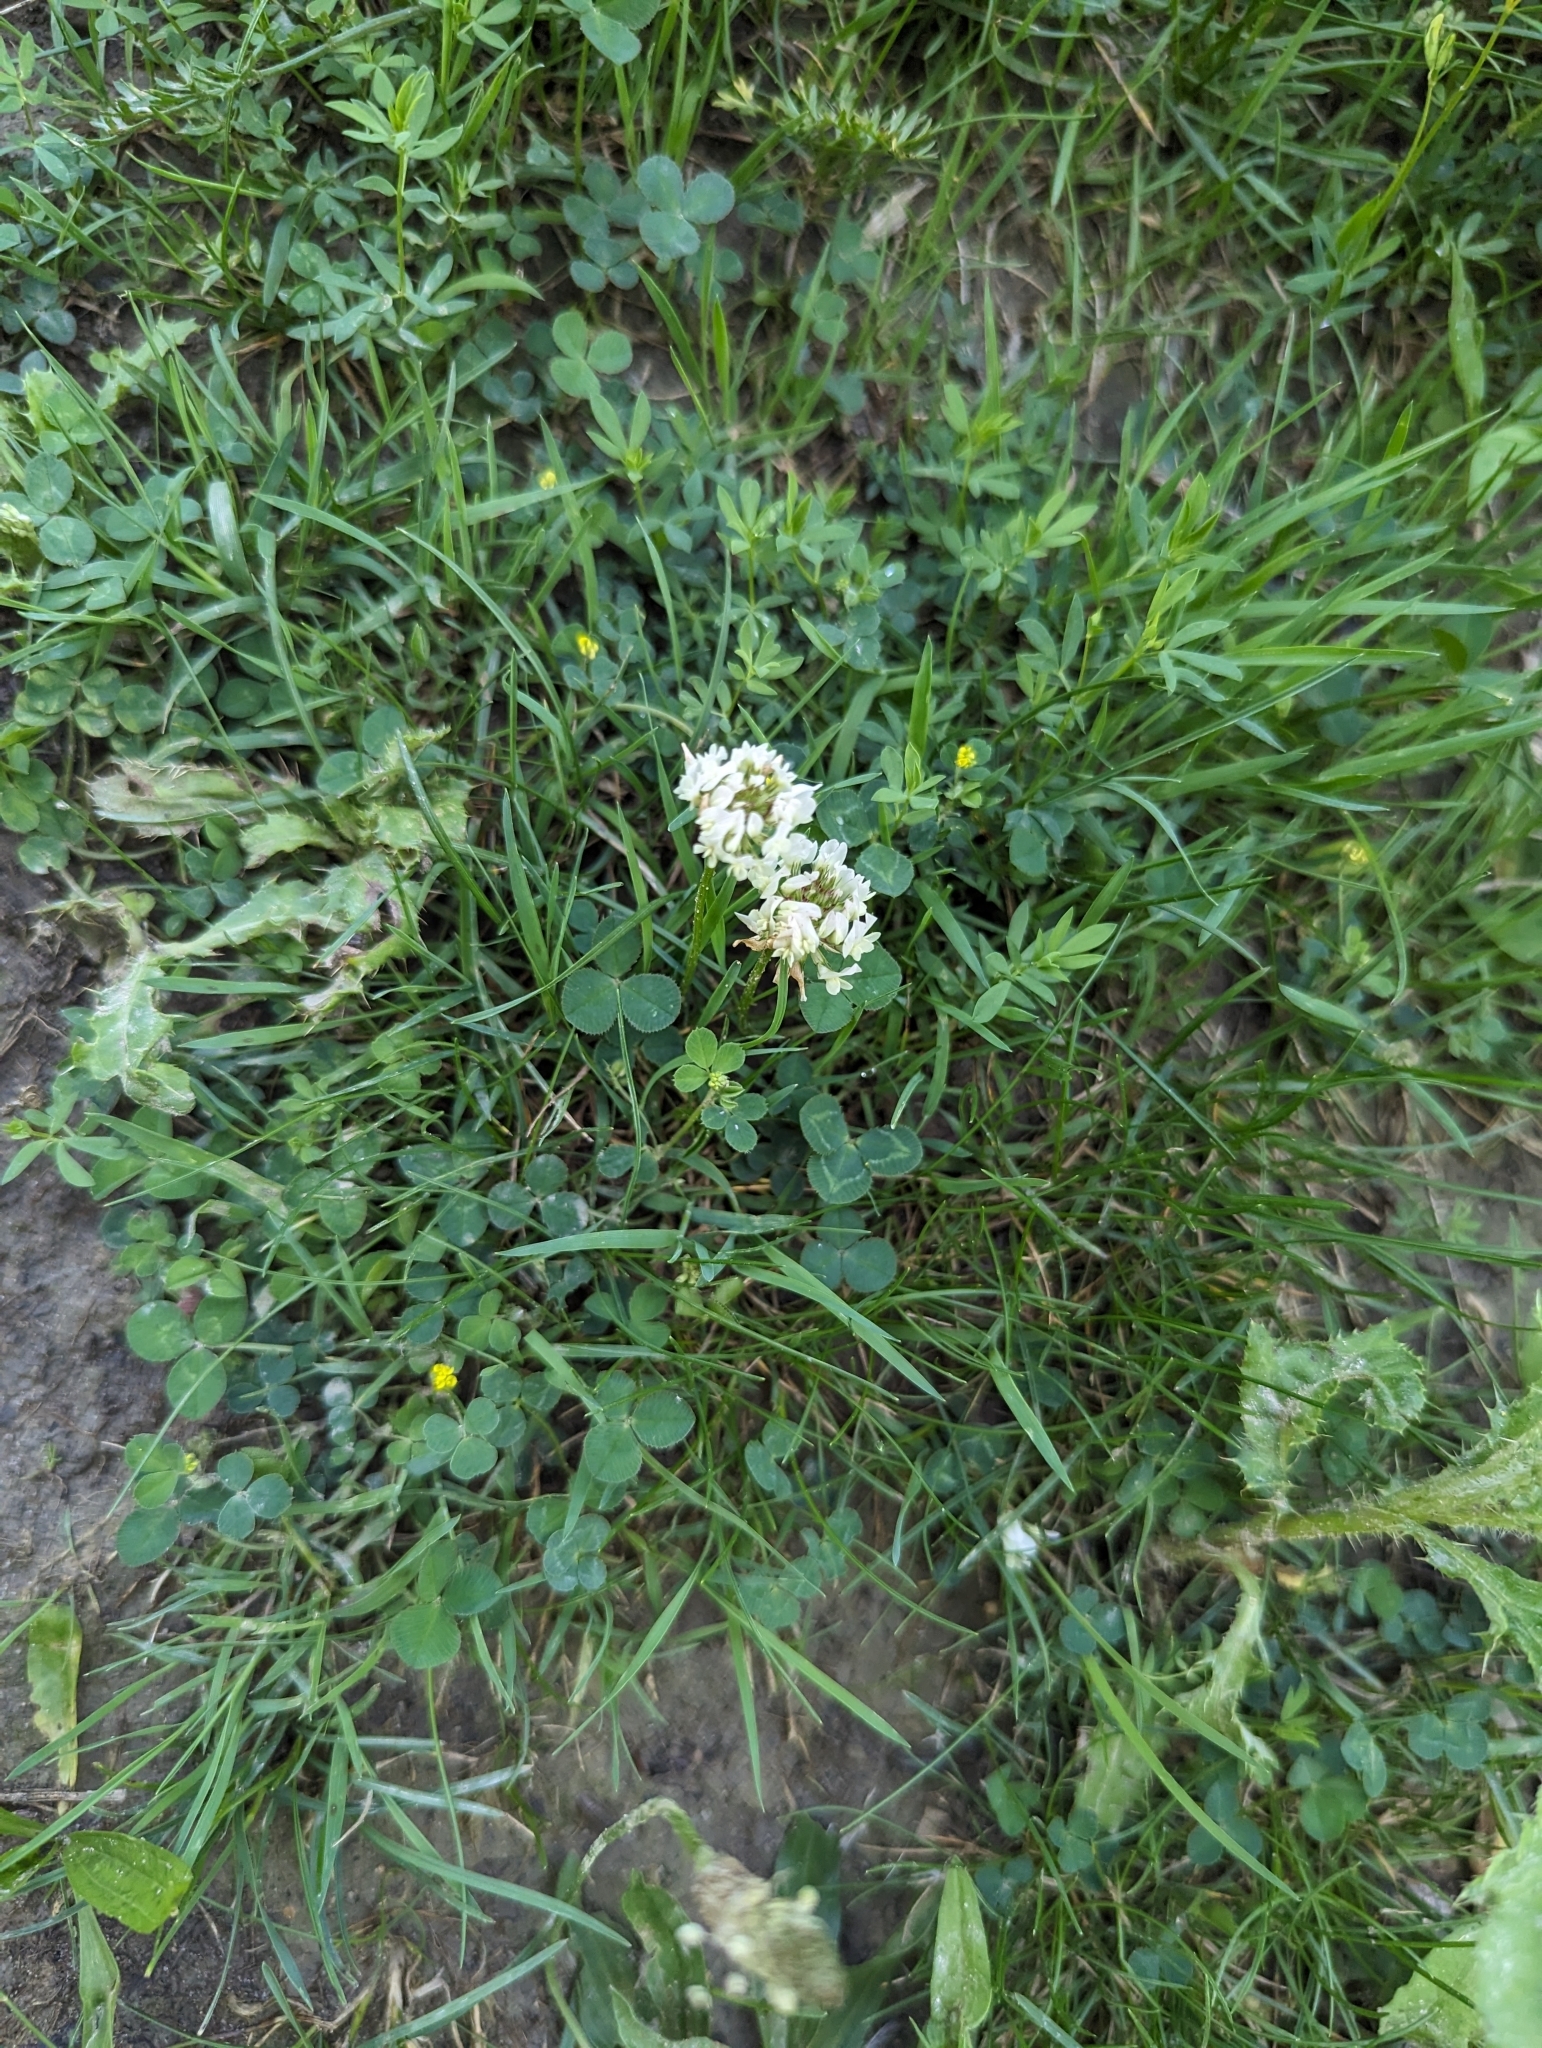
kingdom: Plantae
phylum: Tracheophyta
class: Magnoliopsida
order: Fabales
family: Fabaceae
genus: Trifolium
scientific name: Trifolium repens
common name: White clover
